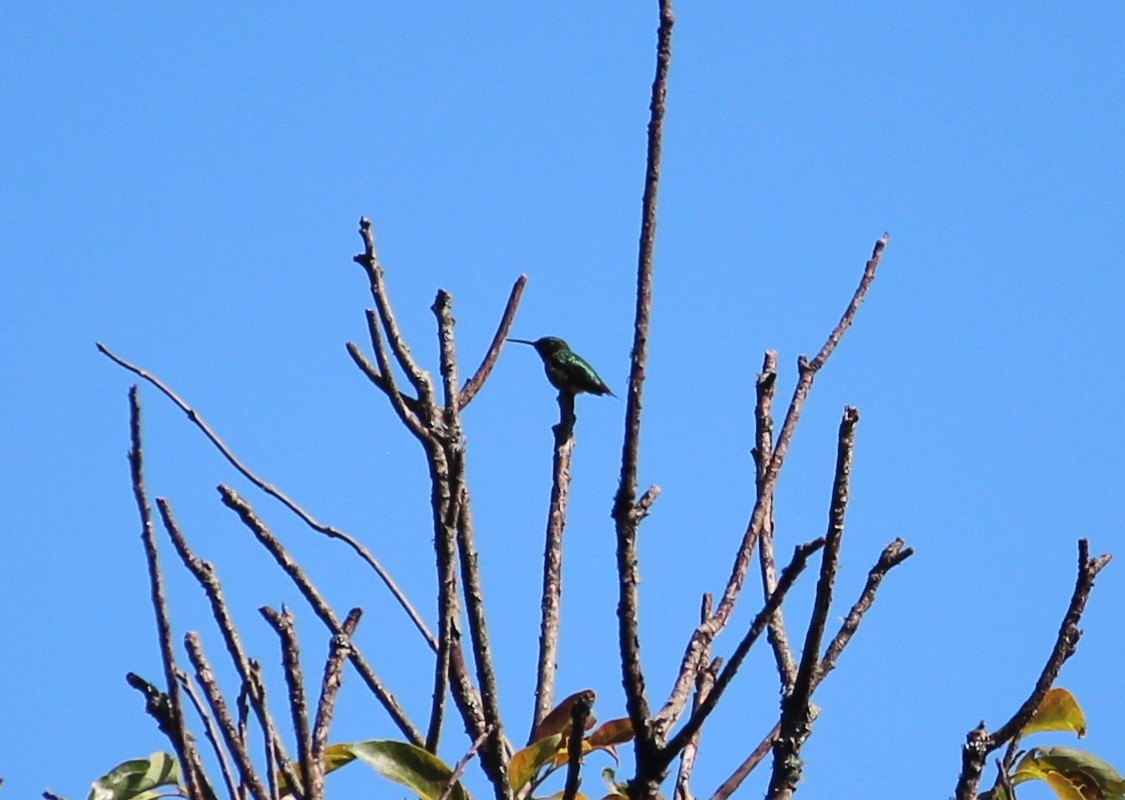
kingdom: Animalia
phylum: Chordata
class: Aves
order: Apodiformes
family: Trochilidae
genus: Archilochus
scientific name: Archilochus colubris
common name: Ruby-throated hummingbird
